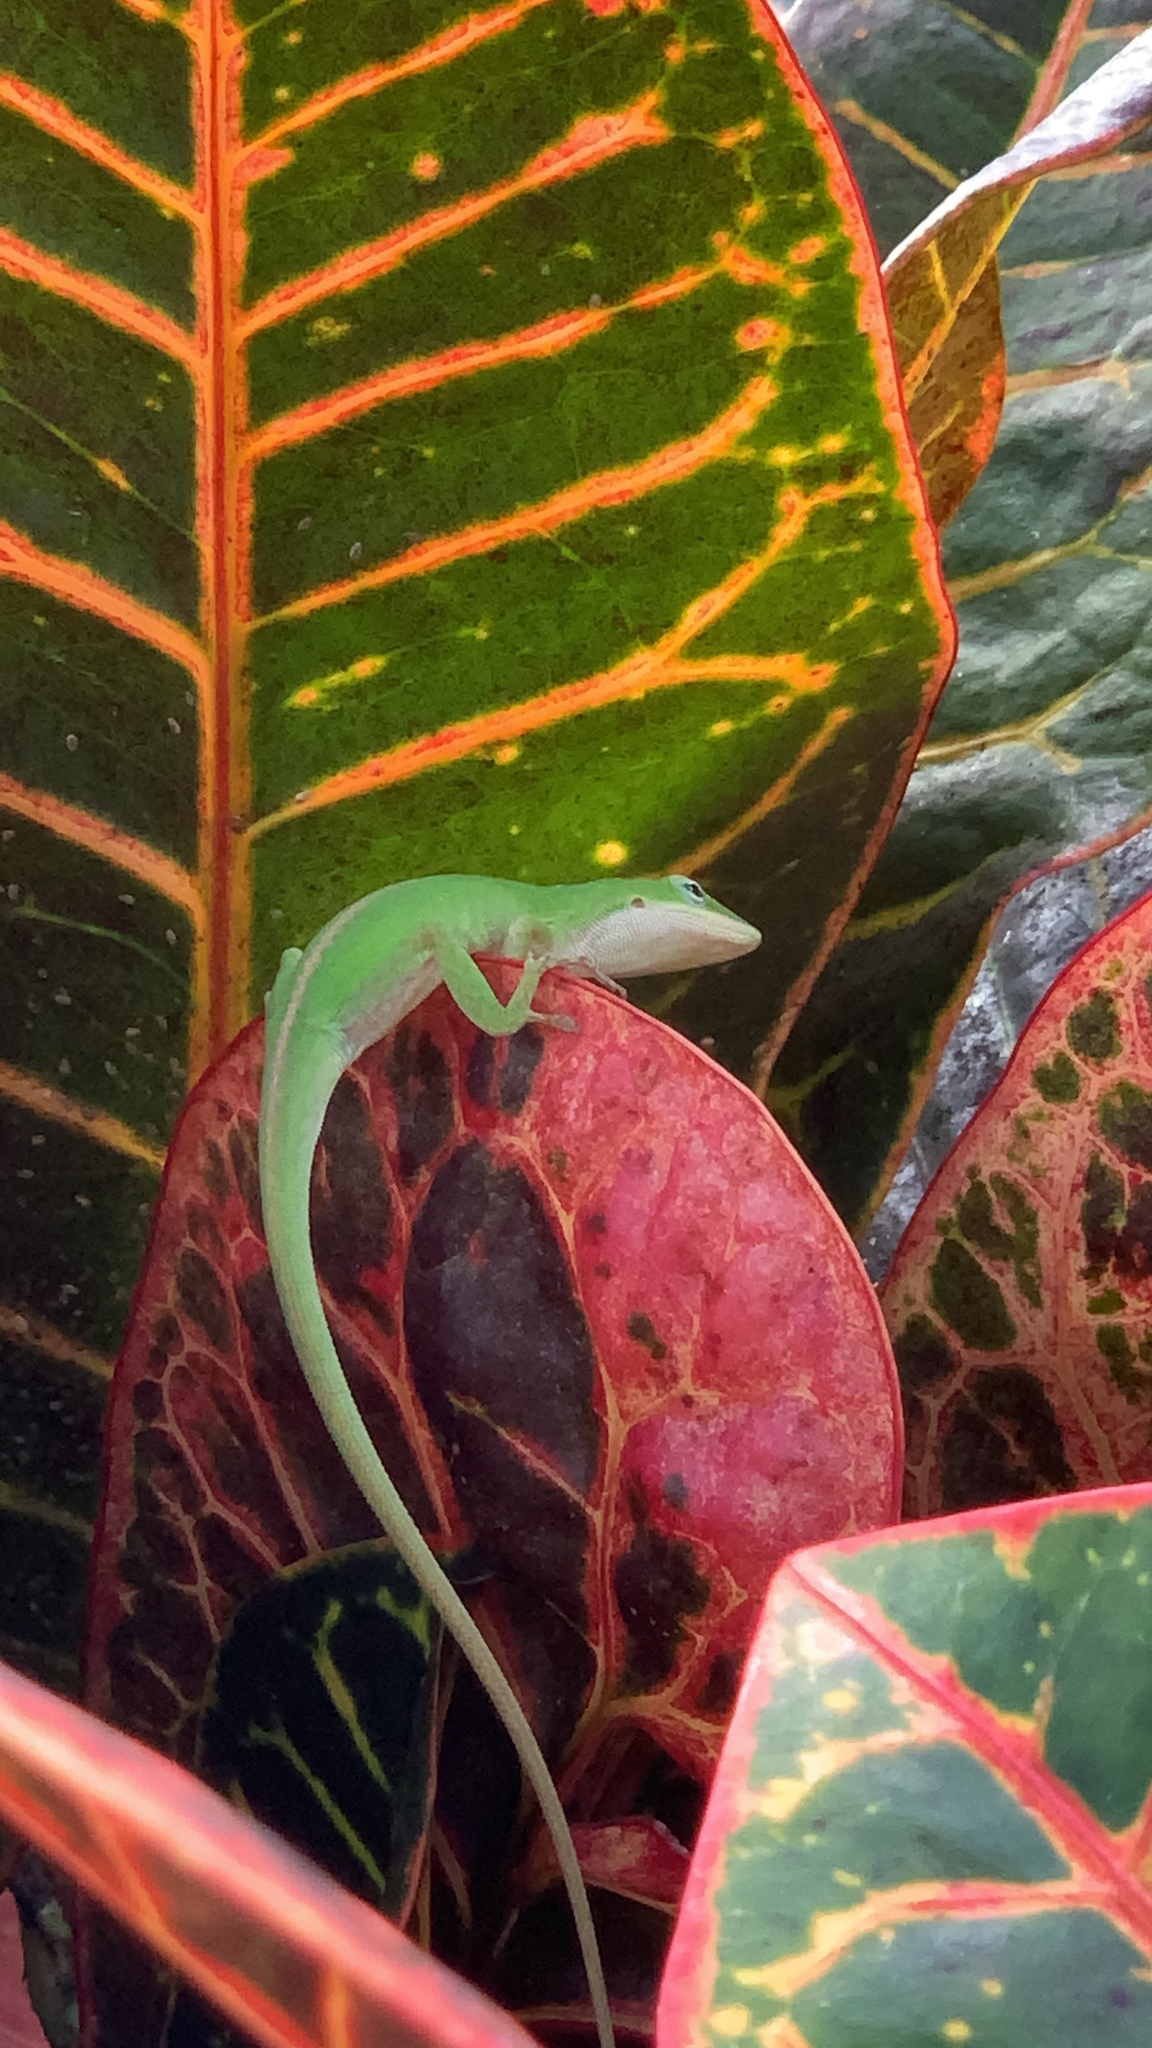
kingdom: Animalia
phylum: Chordata
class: Squamata
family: Dactyloidae
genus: Anolis
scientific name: Anolis carolinensis
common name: Green anole
